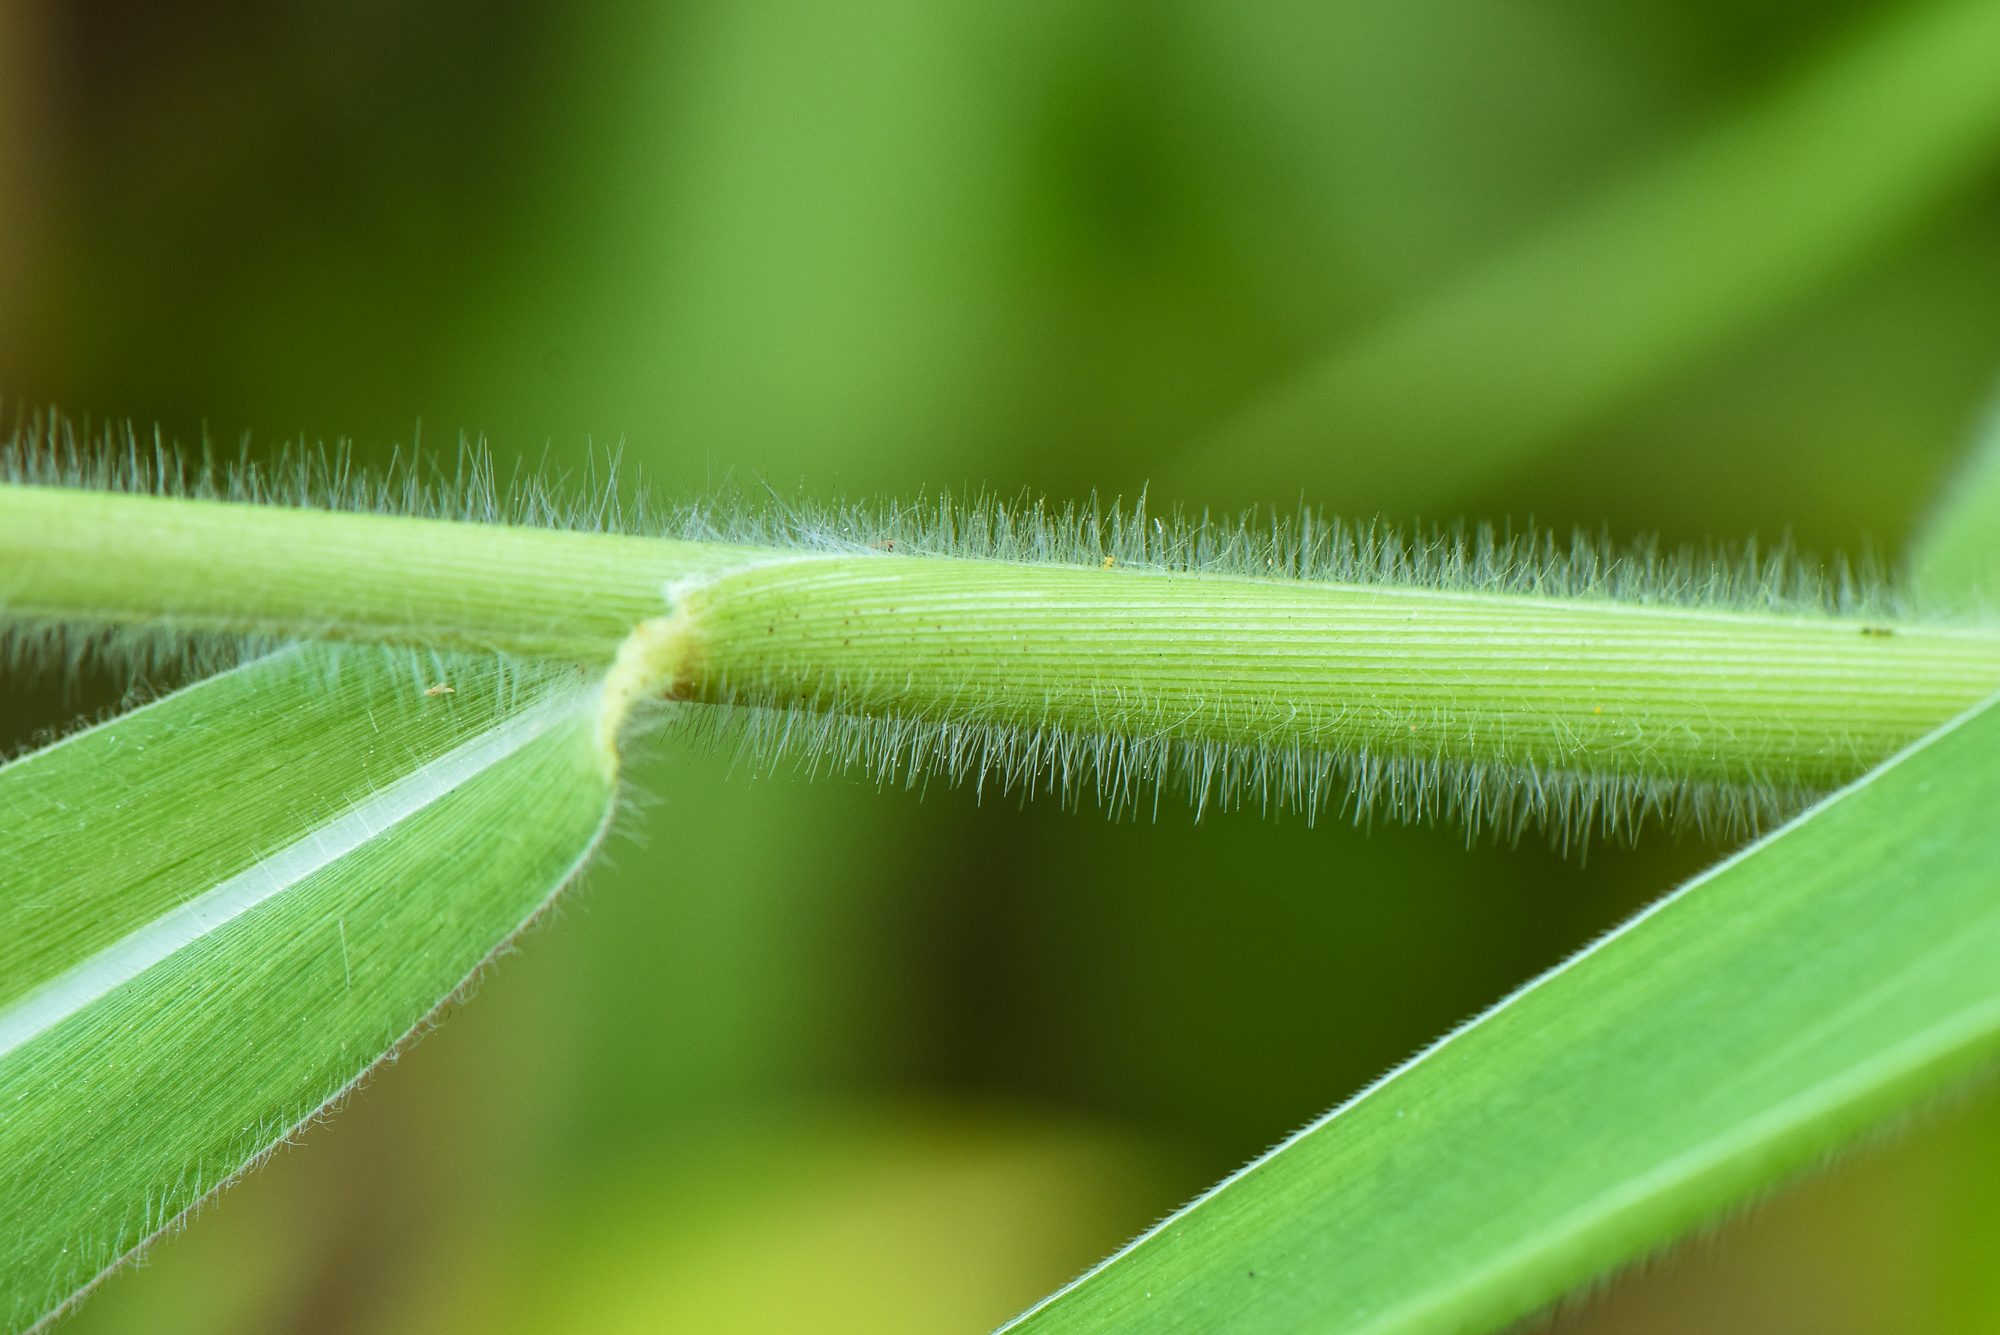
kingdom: Plantae
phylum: Tracheophyta
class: Liliopsida
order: Poales
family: Poaceae
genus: Urochloa
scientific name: Urochloa mutica
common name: Para grass
